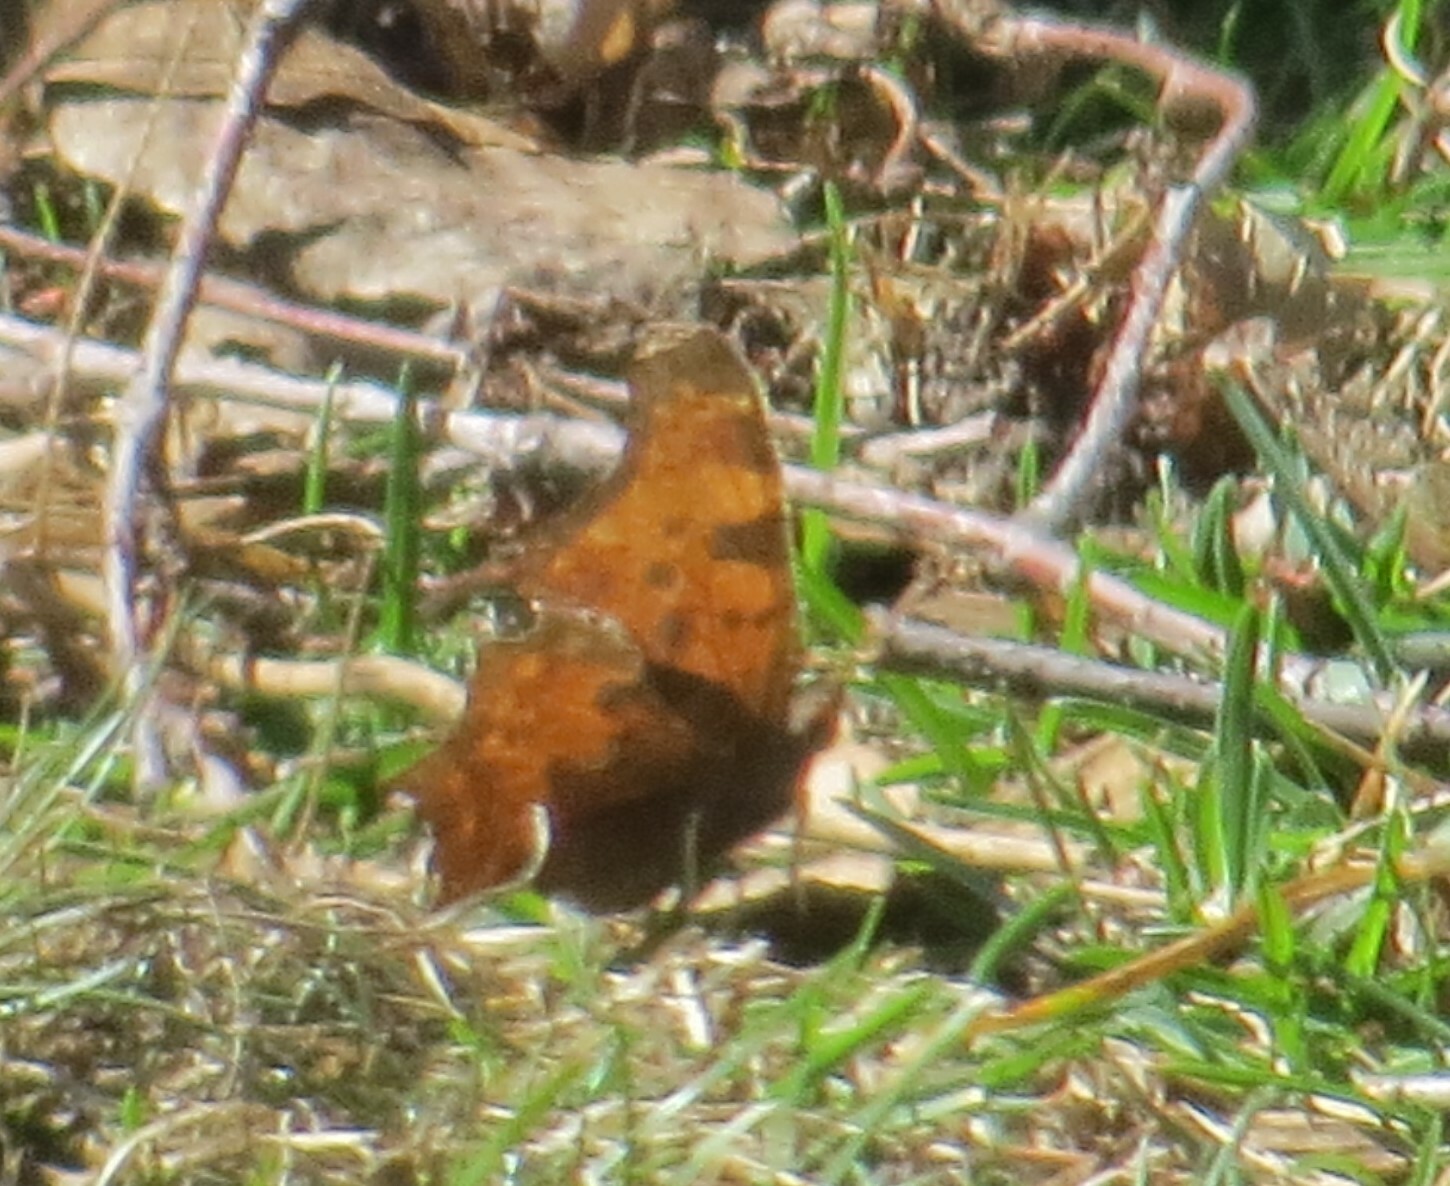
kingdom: Animalia
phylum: Arthropoda
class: Insecta
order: Lepidoptera
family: Nymphalidae
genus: Polygonia
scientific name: Polygonia comma
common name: Eastern comma
